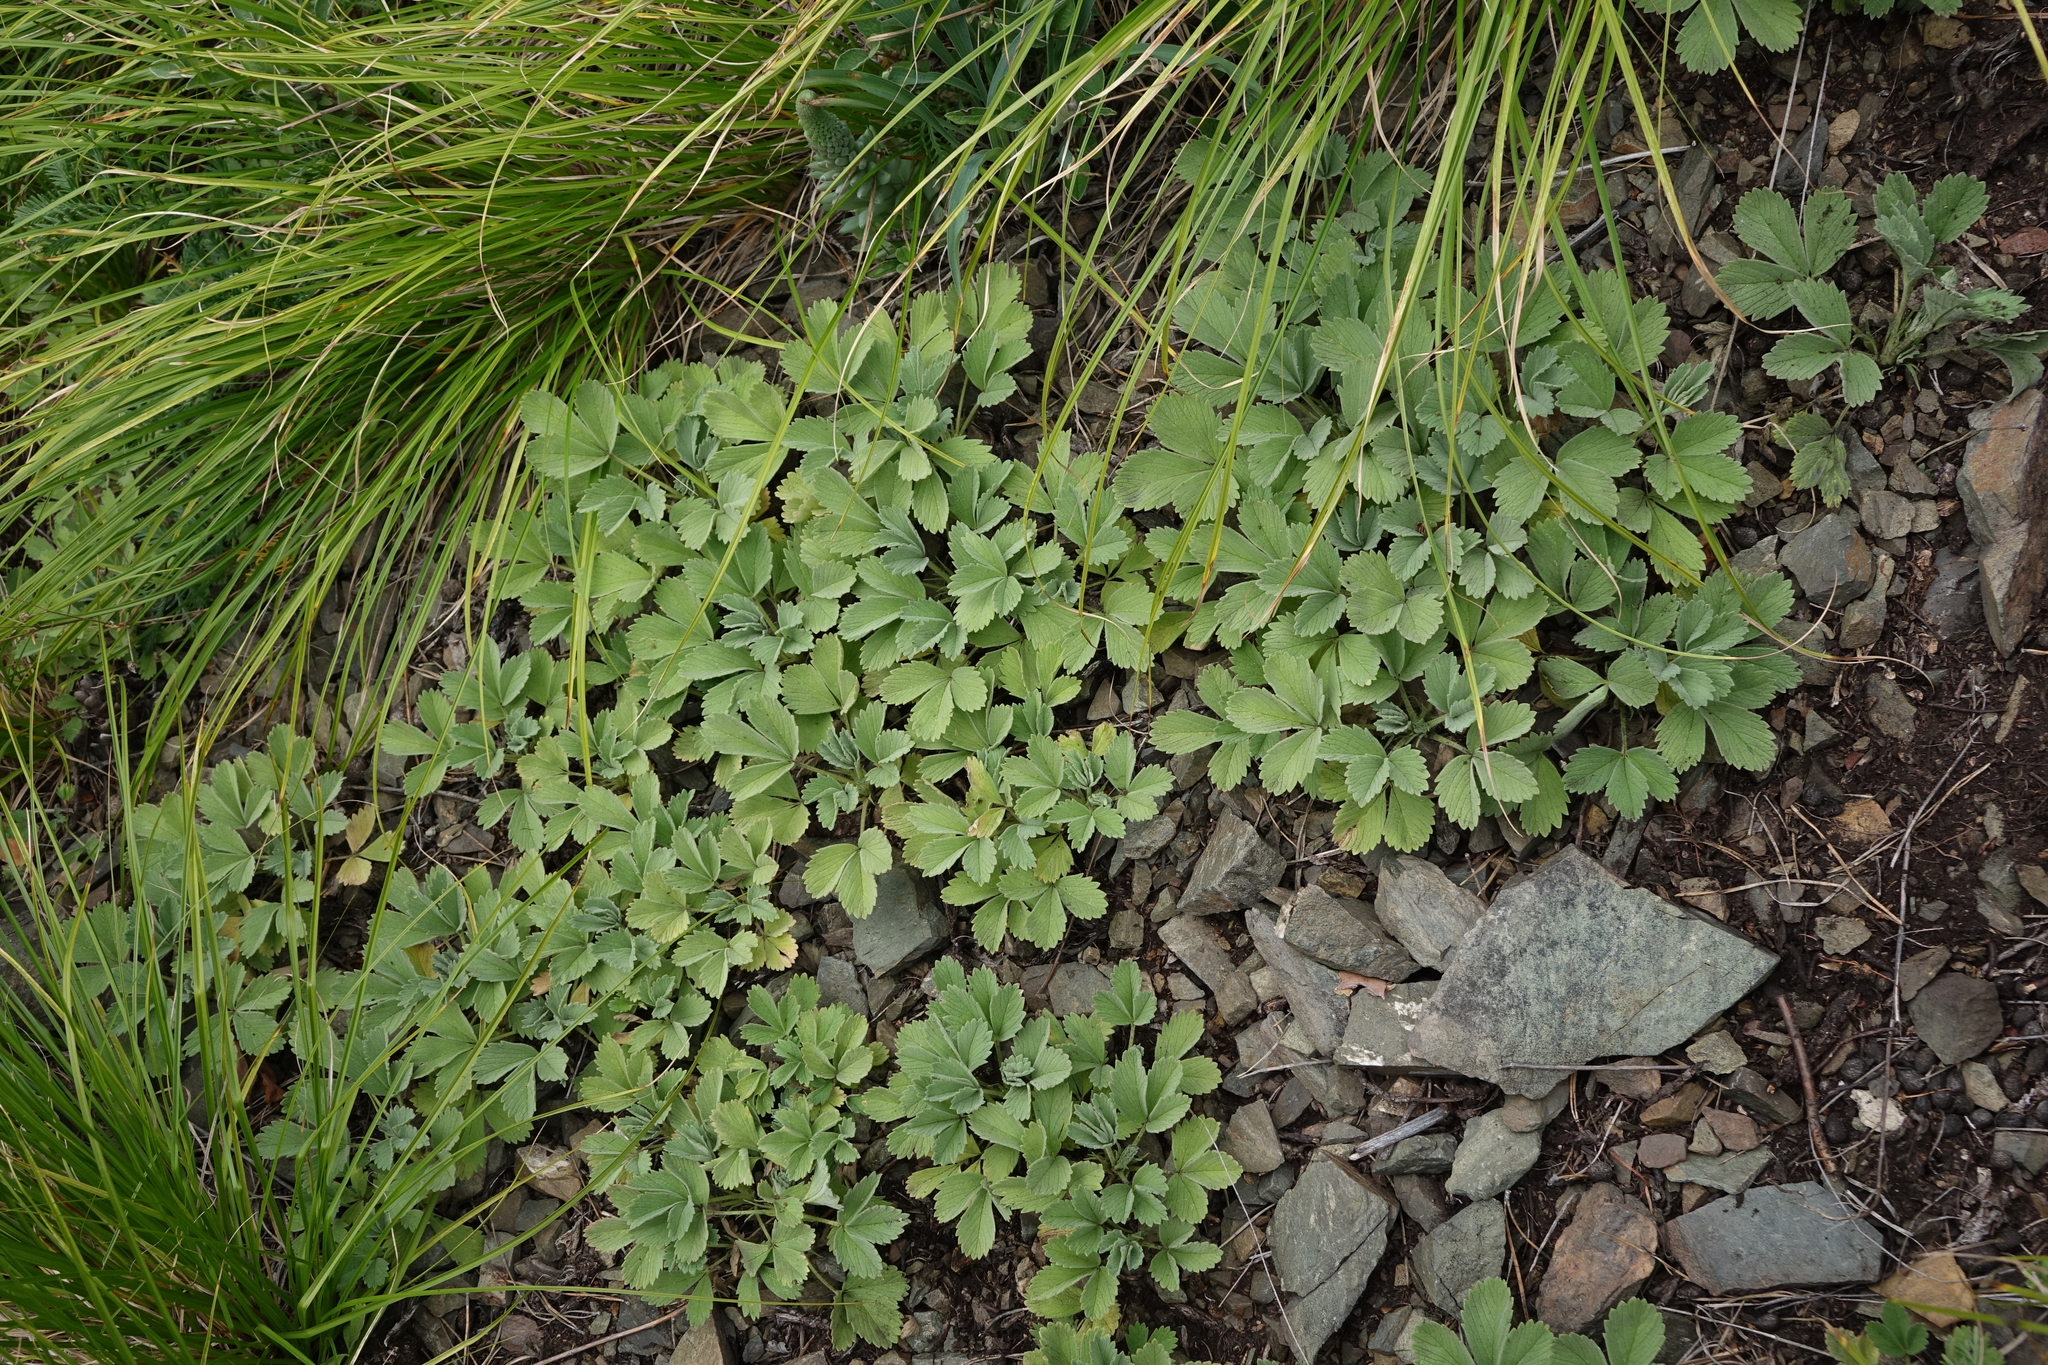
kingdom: Plantae
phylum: Tracheophyta
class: Magnoliopsida
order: Rosales
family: Rosaceae
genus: Potentilla
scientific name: Potentilla acaulis
